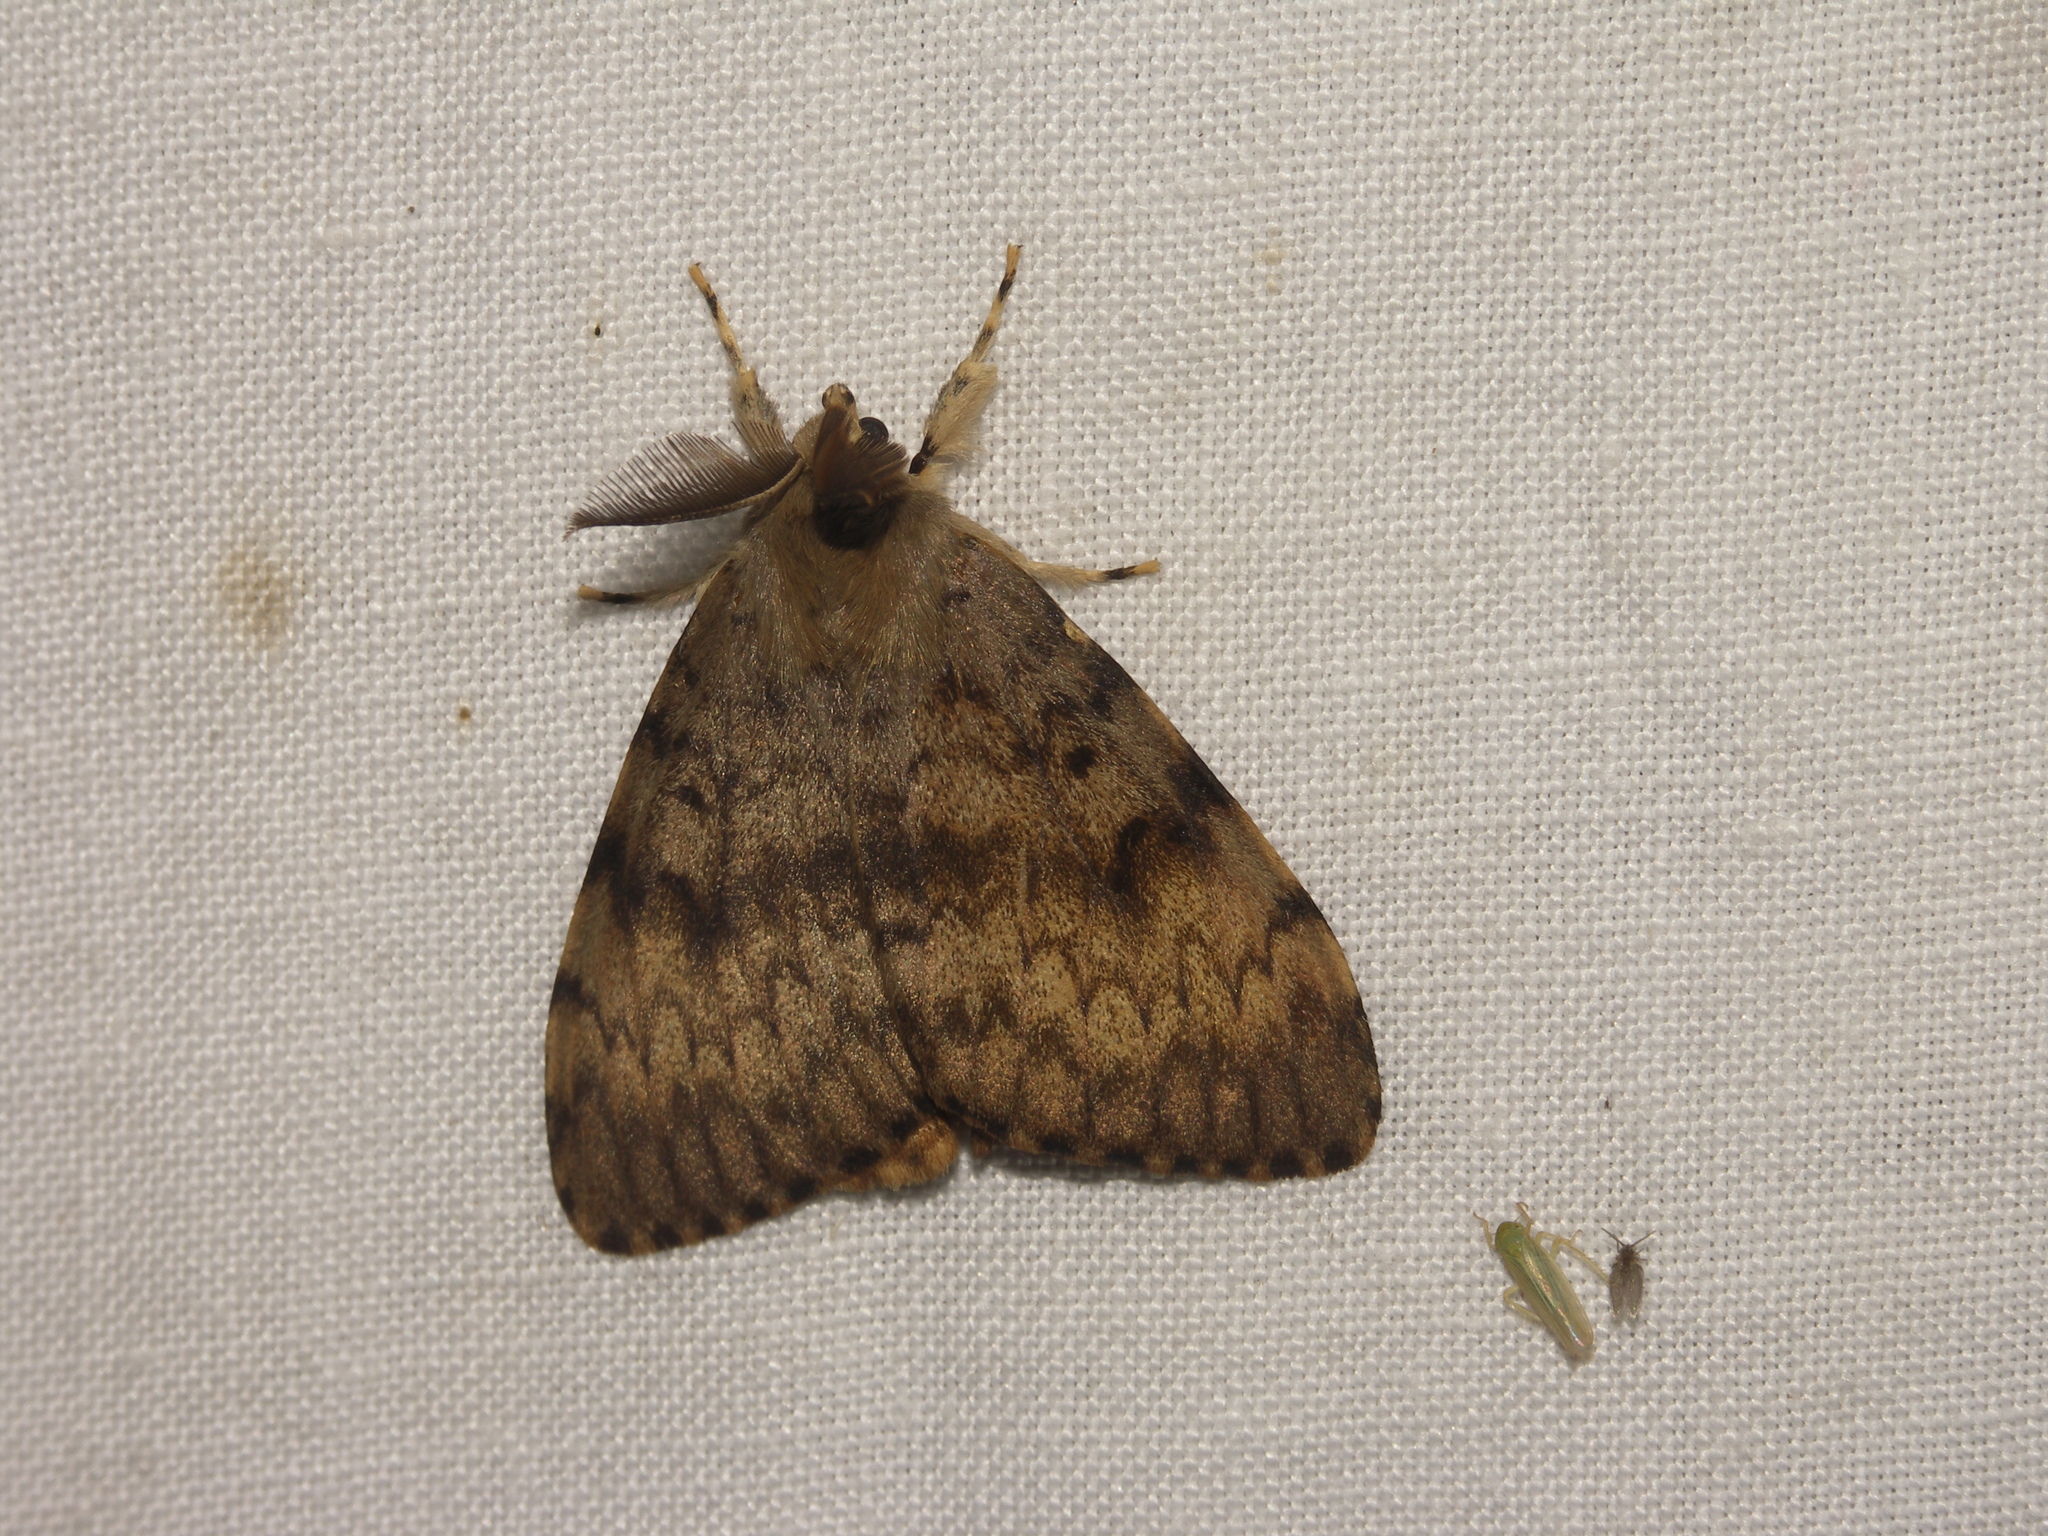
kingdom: Animalia
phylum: Arthropoda
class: Insecta
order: Lepidoptera
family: Erebidae
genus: Lymantria
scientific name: Lymantria dispar
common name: Gypsy moth
